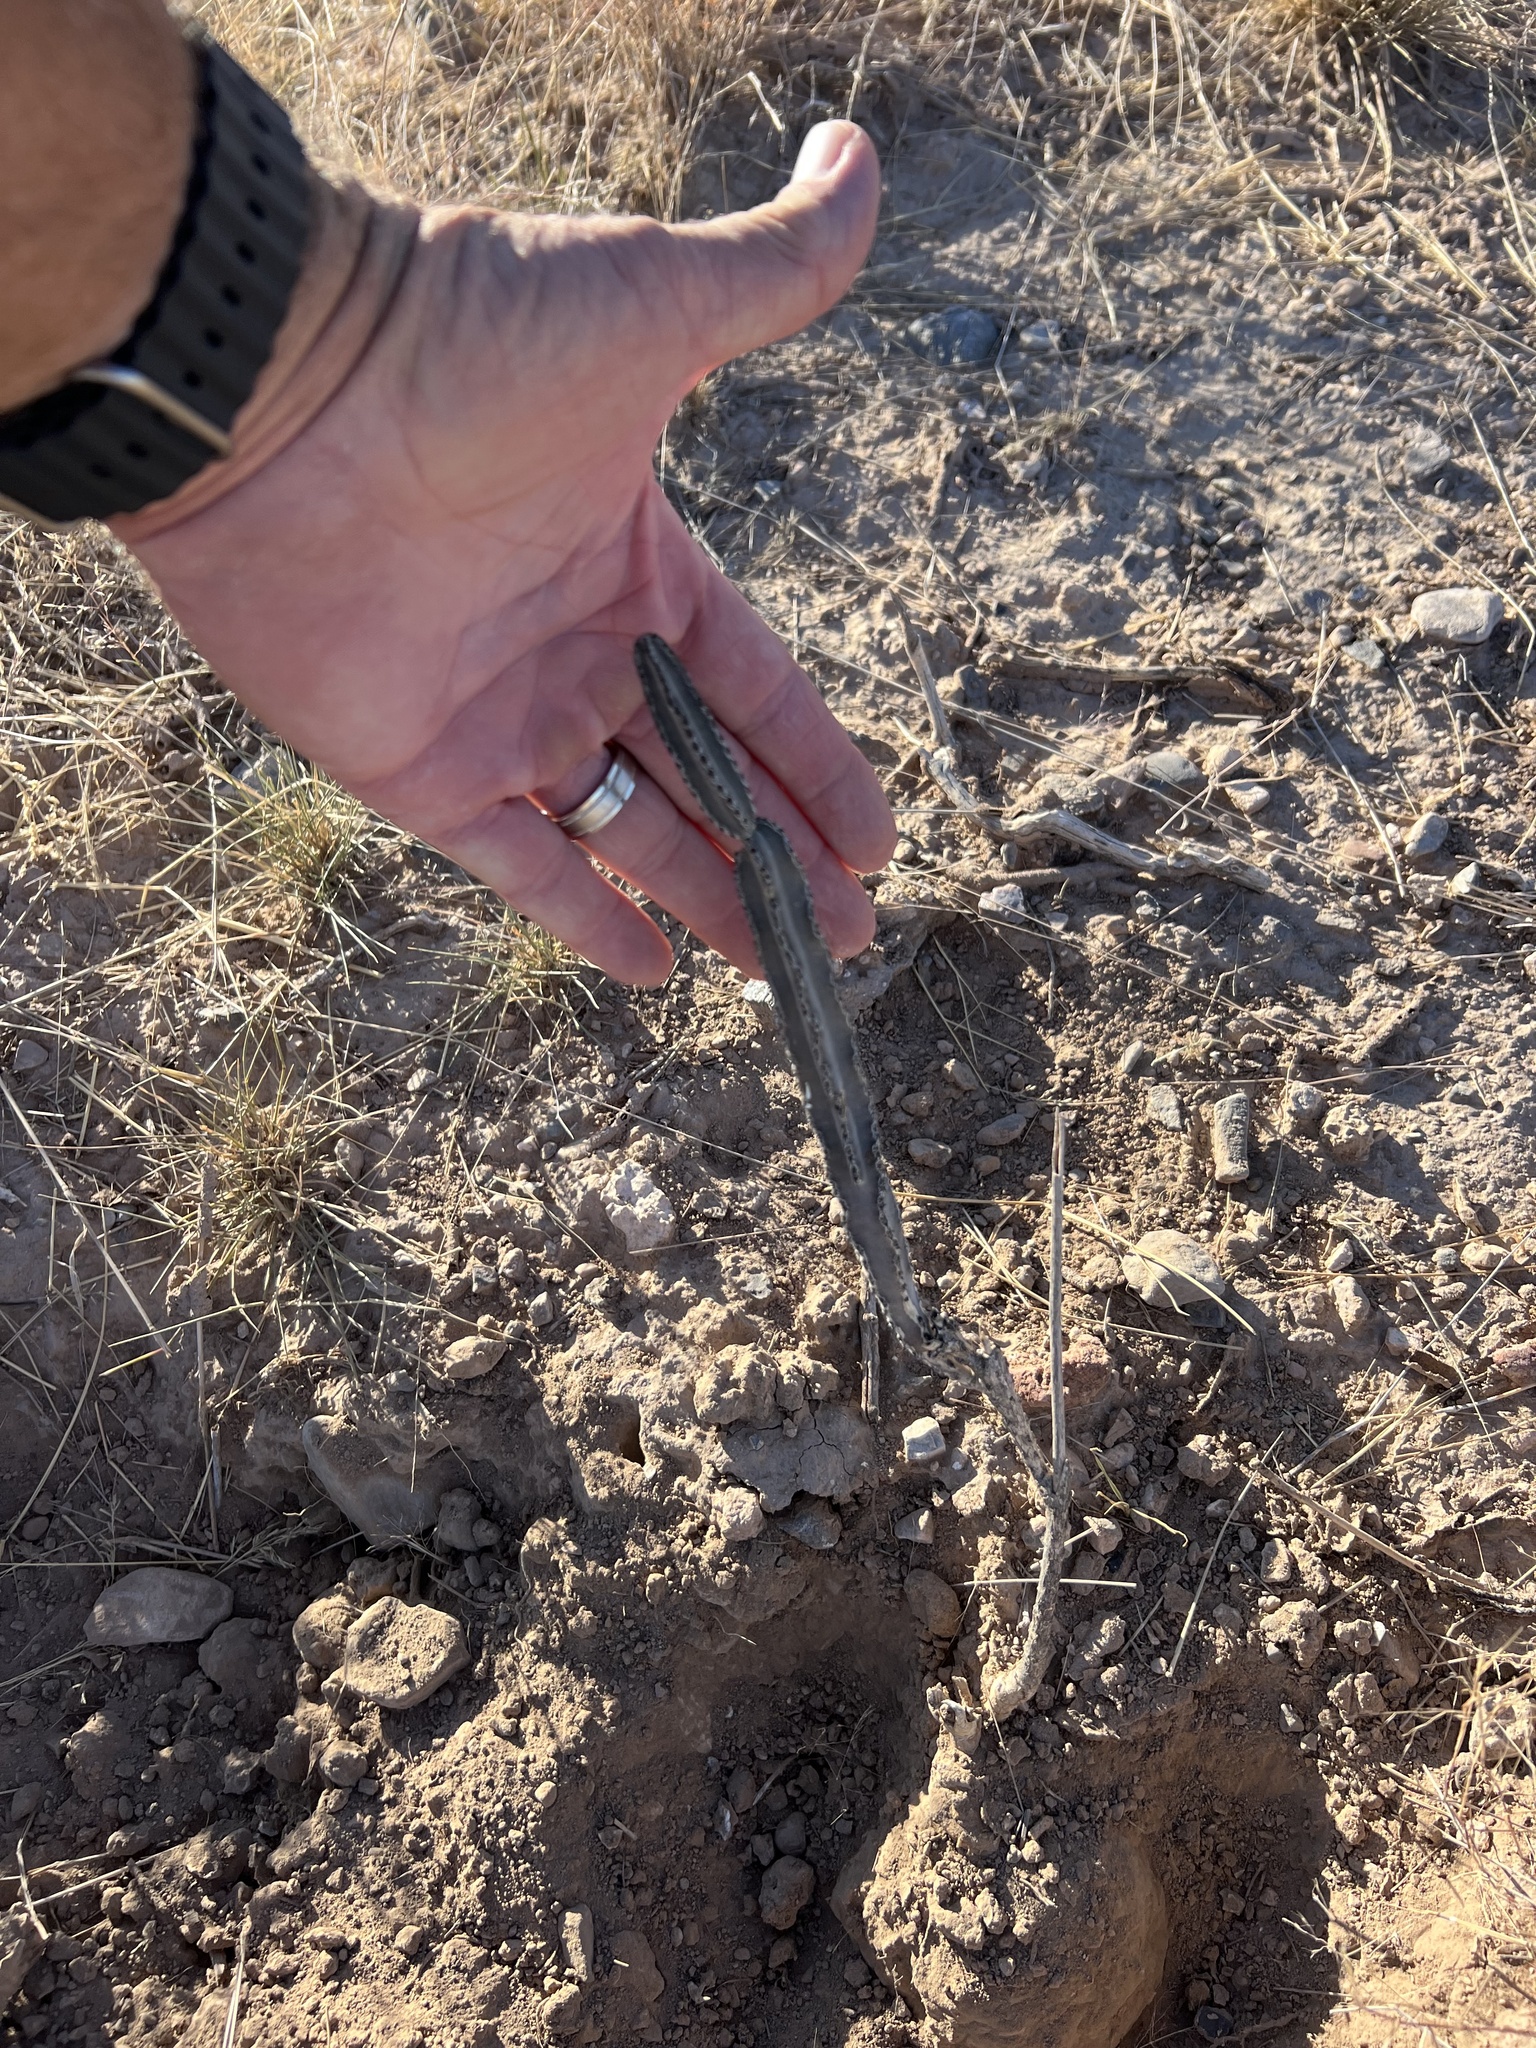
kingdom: Plantae
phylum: Tracheophyta
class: Magnoliopsida
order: Caryophyllales
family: Cactaceae
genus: Peniocereus
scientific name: Peniocereus greggii
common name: Desert night-blooming cereus
